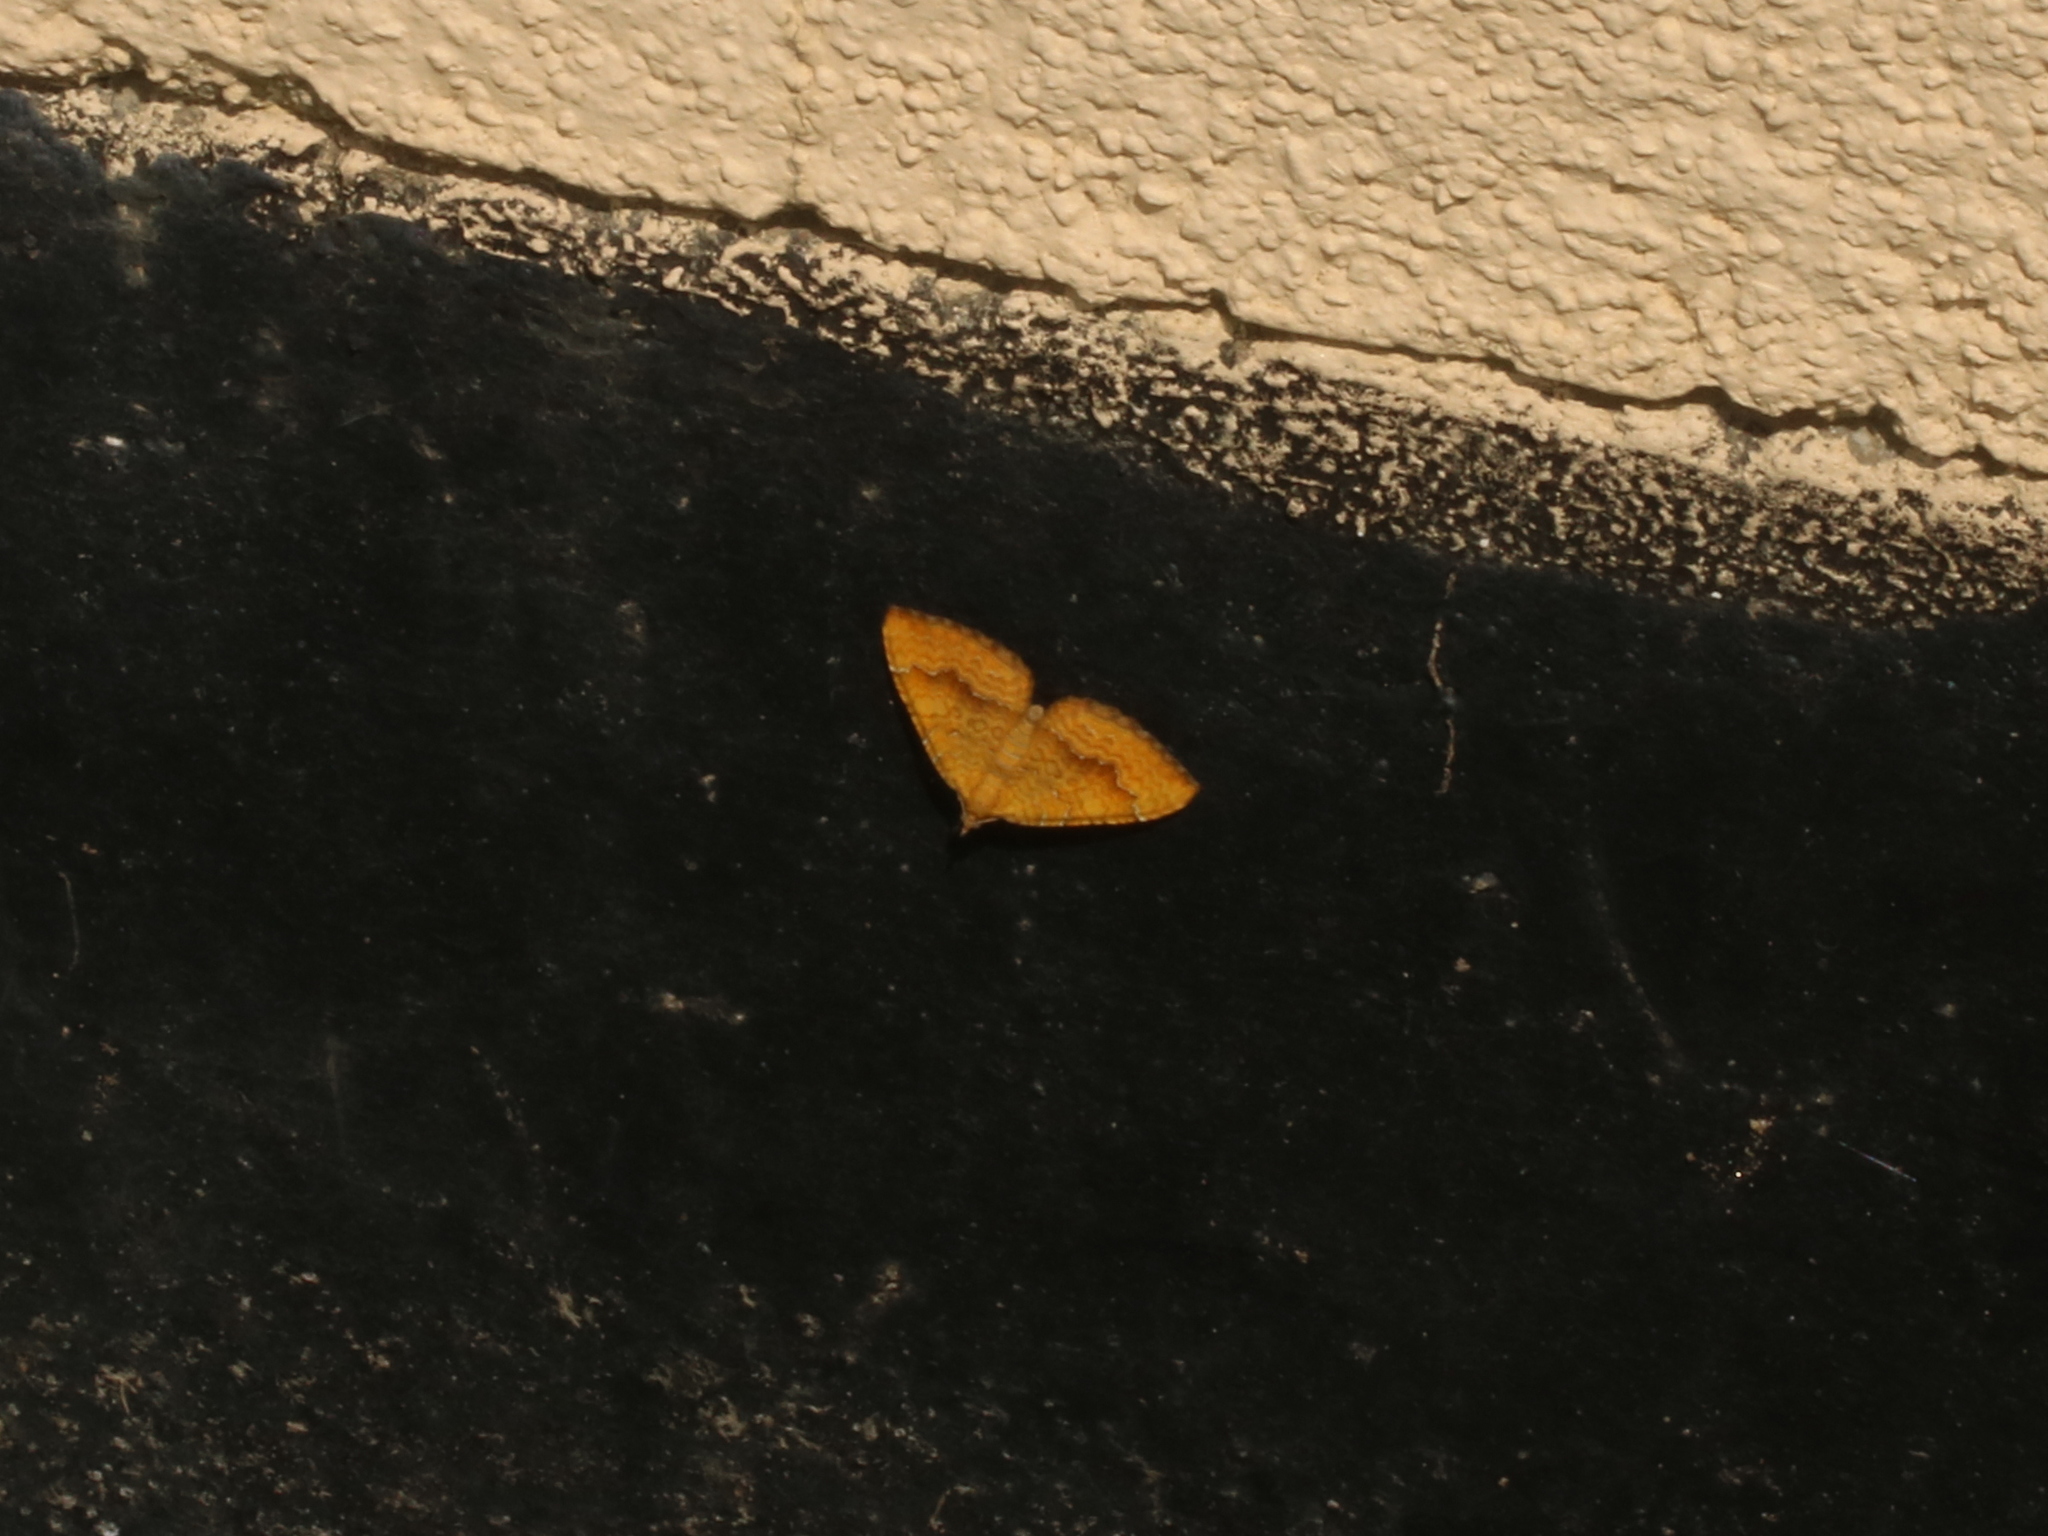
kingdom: Animalia
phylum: Arthropoda
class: Insecta
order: Lepidoptera
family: Geometridae
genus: Camptogramma
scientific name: Camptogramma bilineata
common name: Yellow shell
